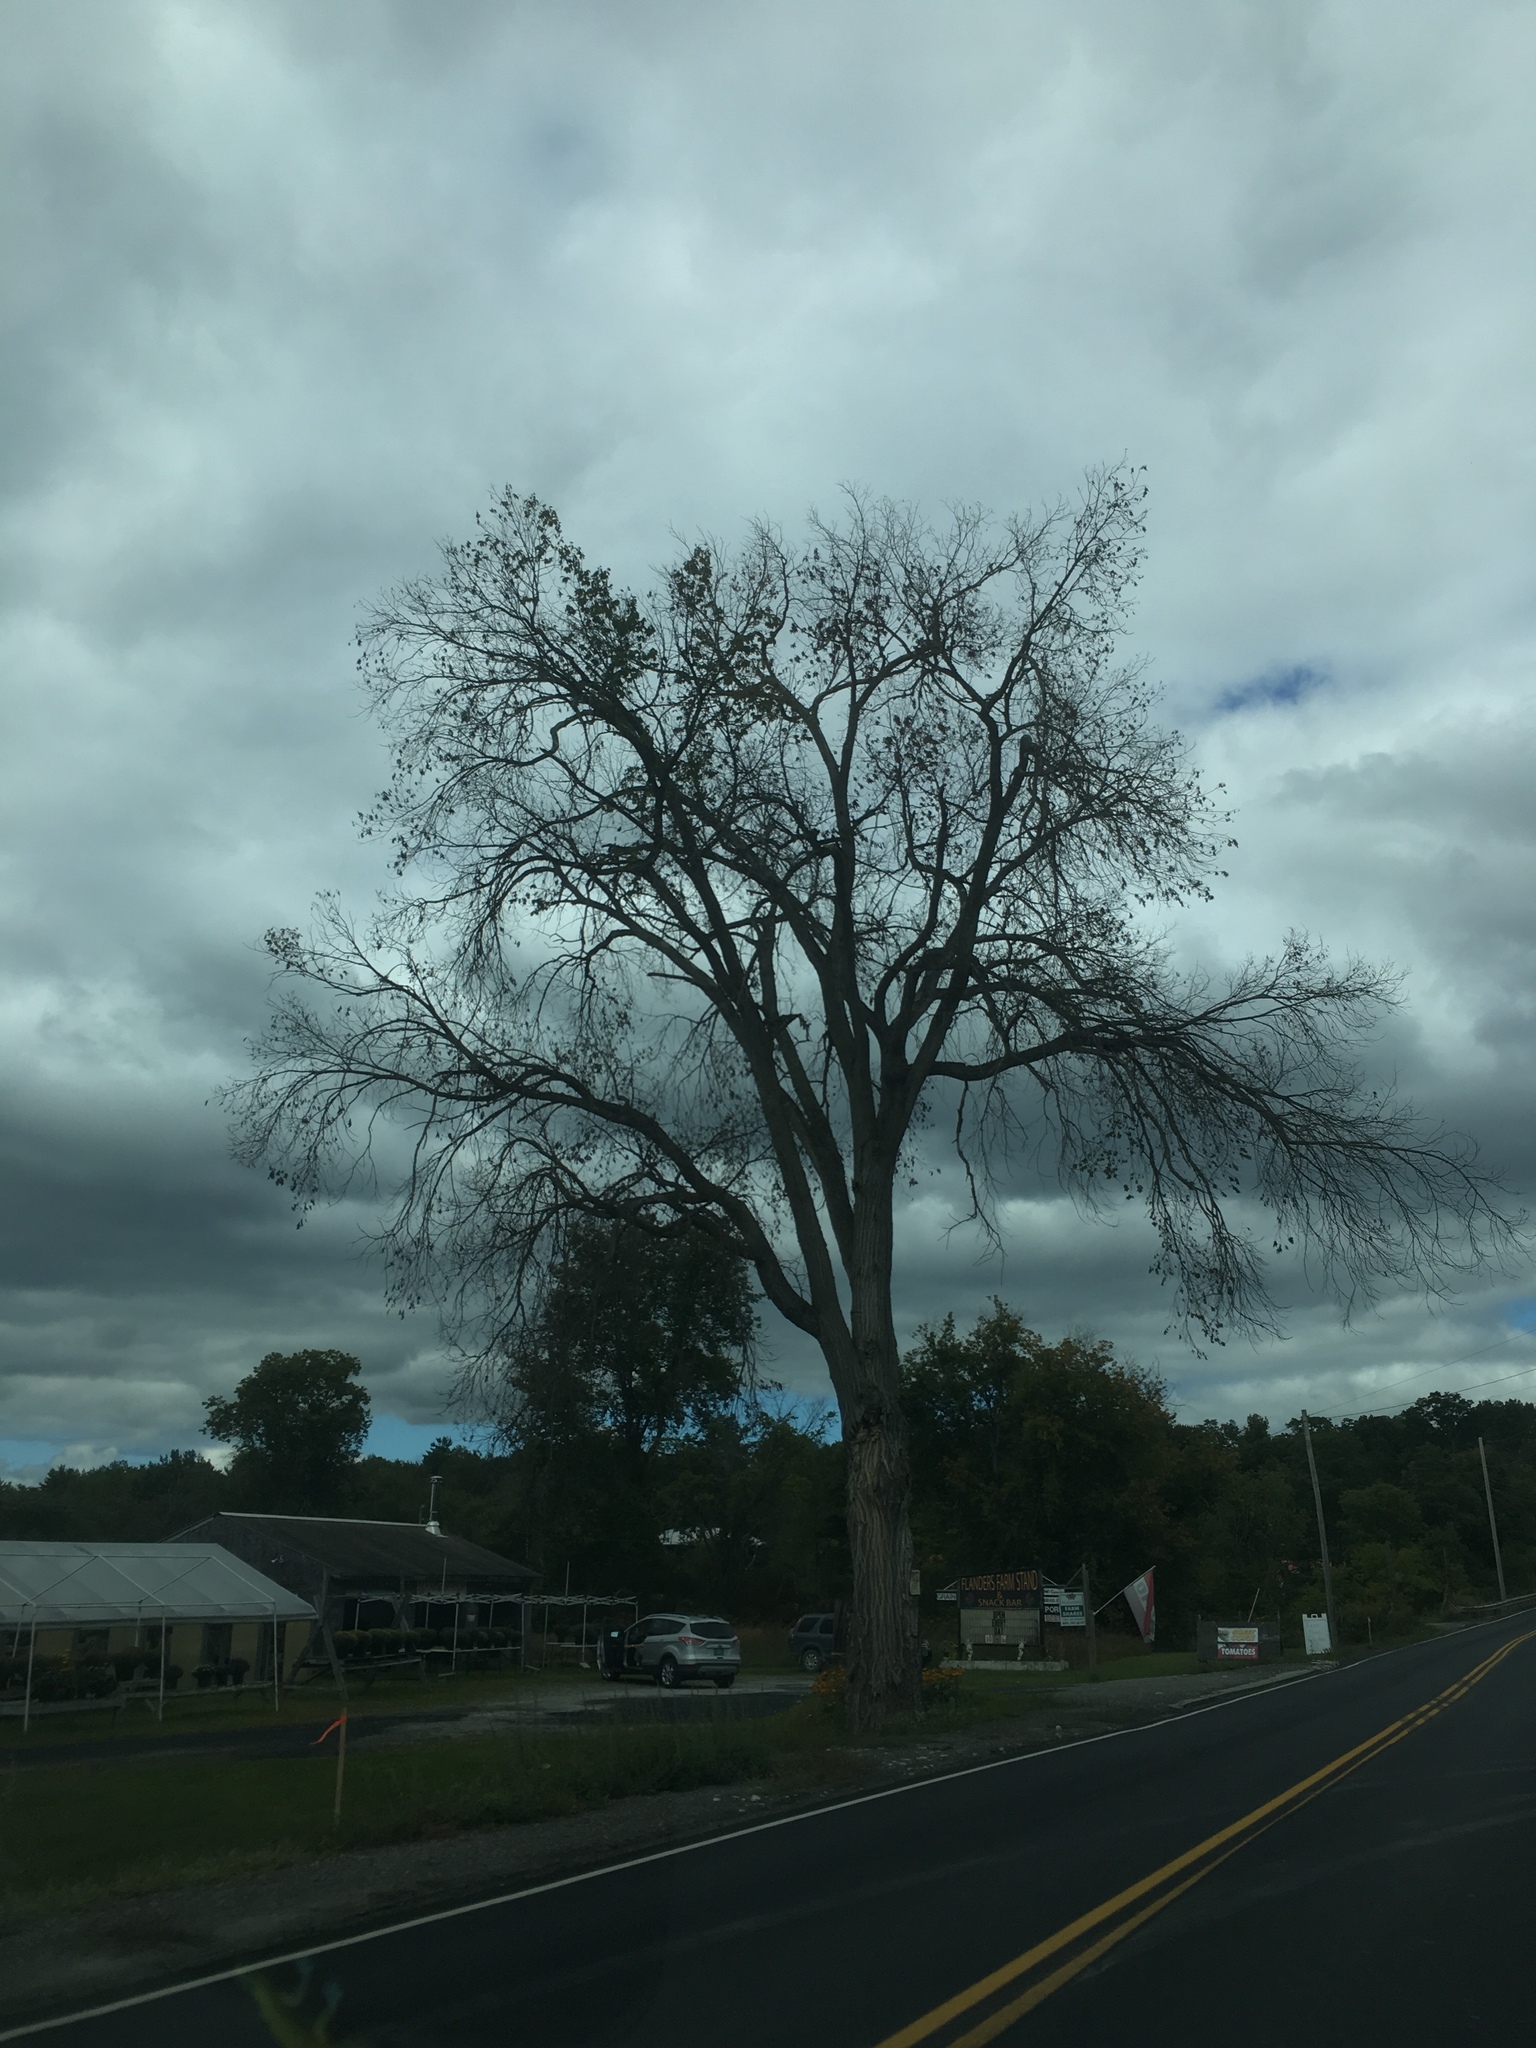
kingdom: Plantae
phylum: Tracheophyta
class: Magnoliopsida
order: Rosales
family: Ulmaceae
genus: Ulmus
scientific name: Ulmus americana
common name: American elm
